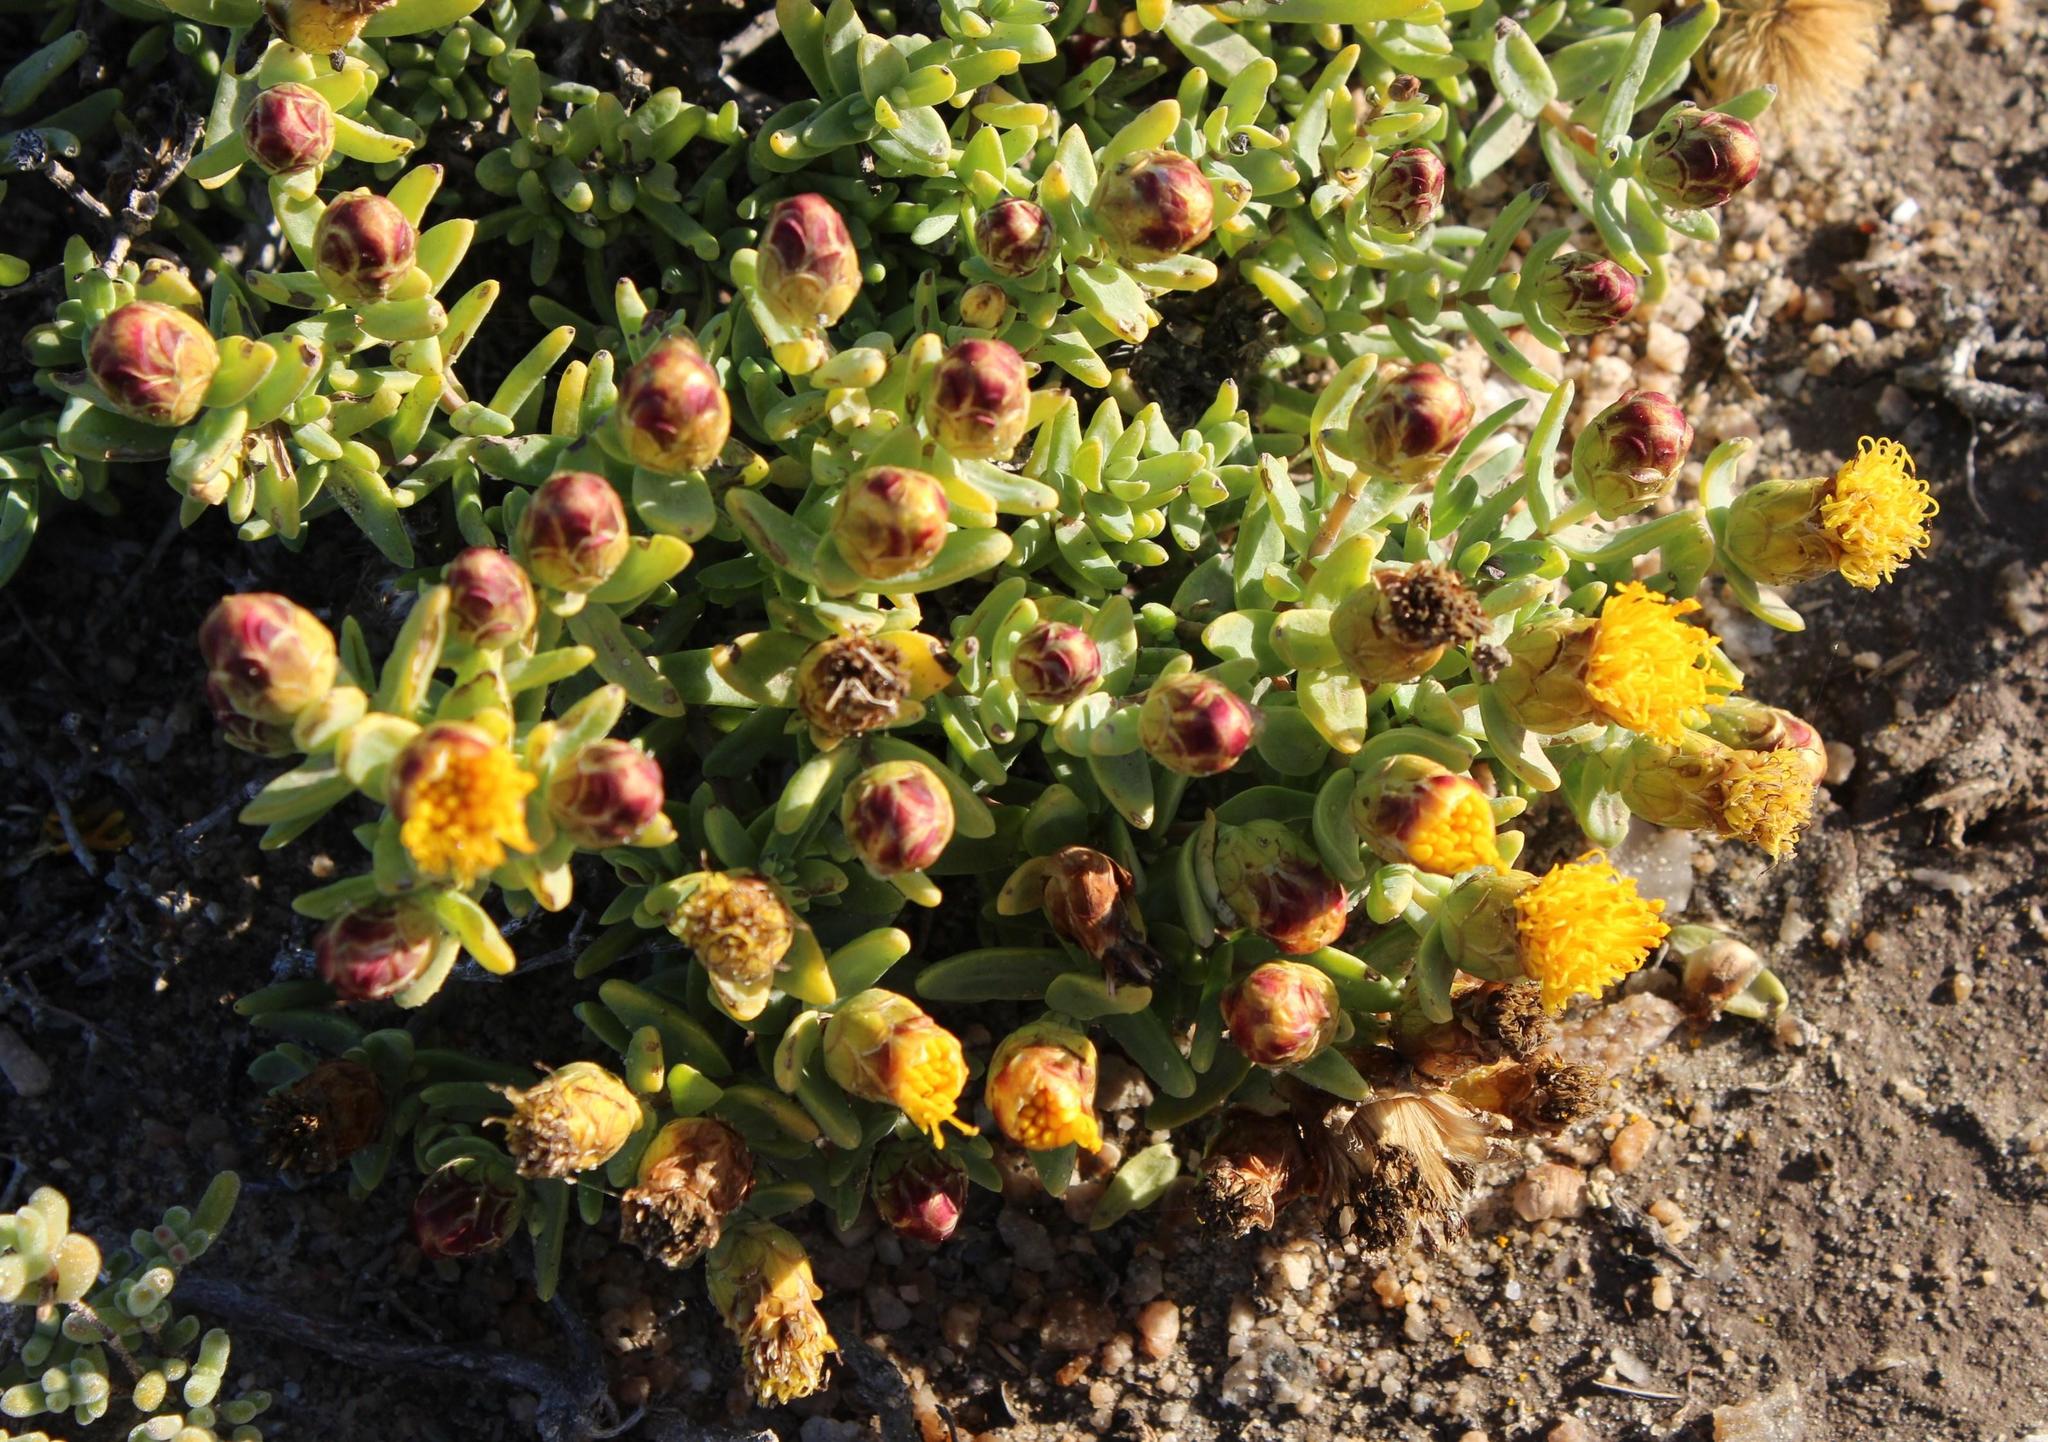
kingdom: Plantae
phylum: Tracheophyta
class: Magnoliopsida
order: Asterales
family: Asteraceae
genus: Pteronia
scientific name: Pteronia glabrata
